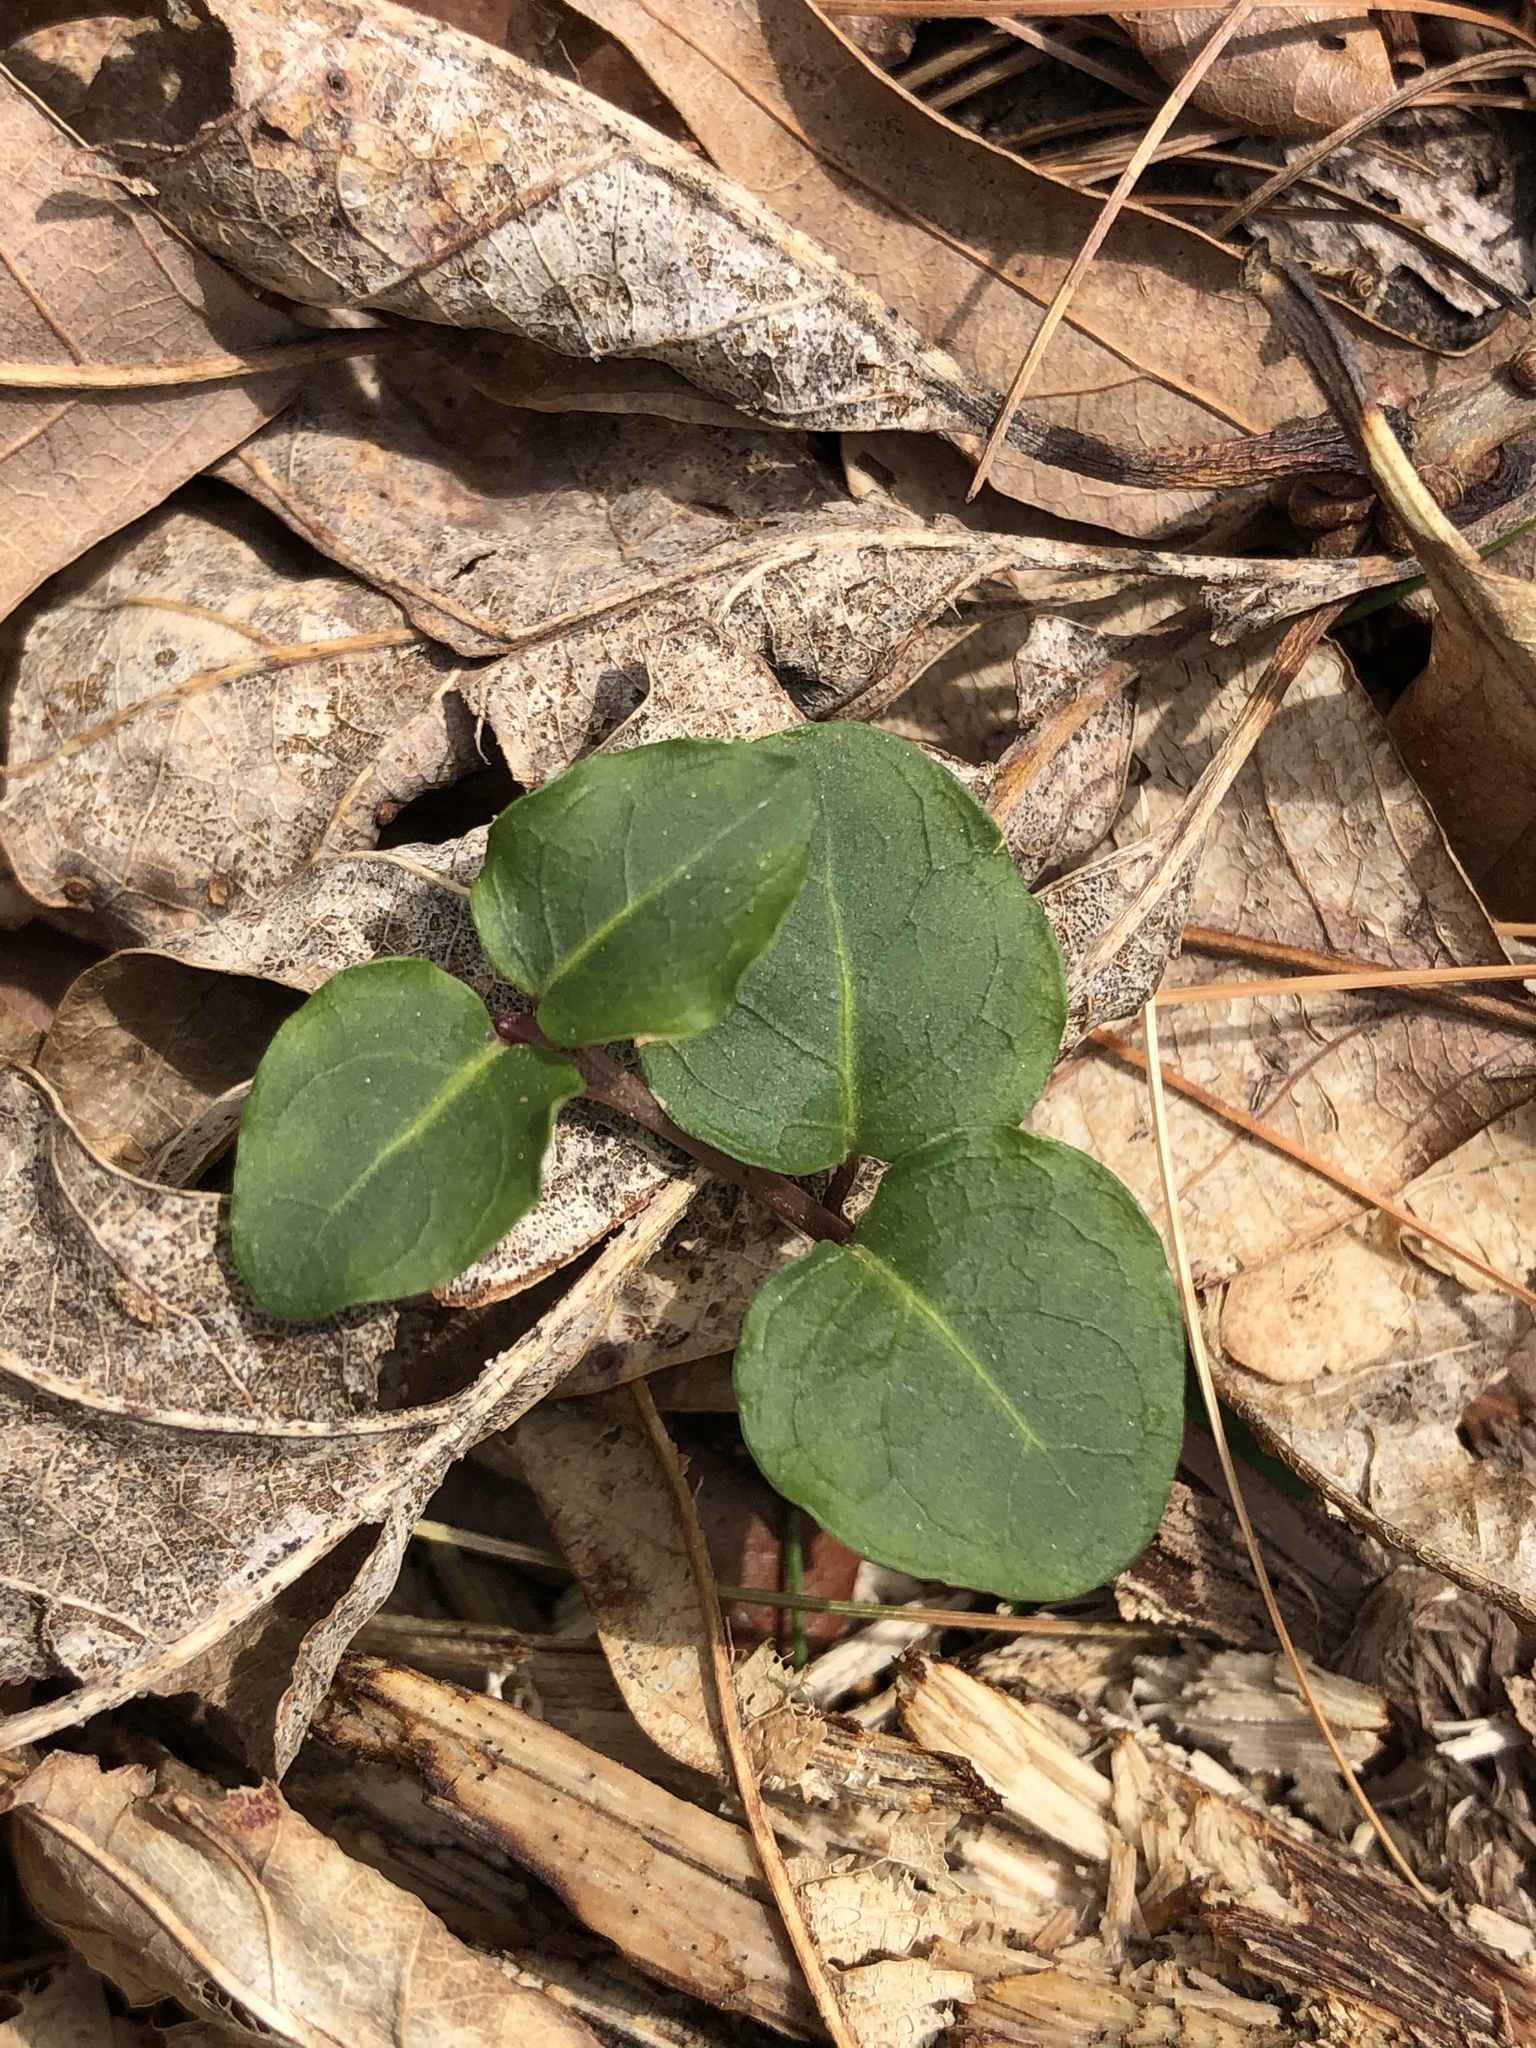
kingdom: Plantae
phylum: Tracheophyta
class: Magnoliopsida
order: Gentianales
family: Rubiaceae
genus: Mitchella
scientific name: Mitchella repens
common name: Partridge-berry
